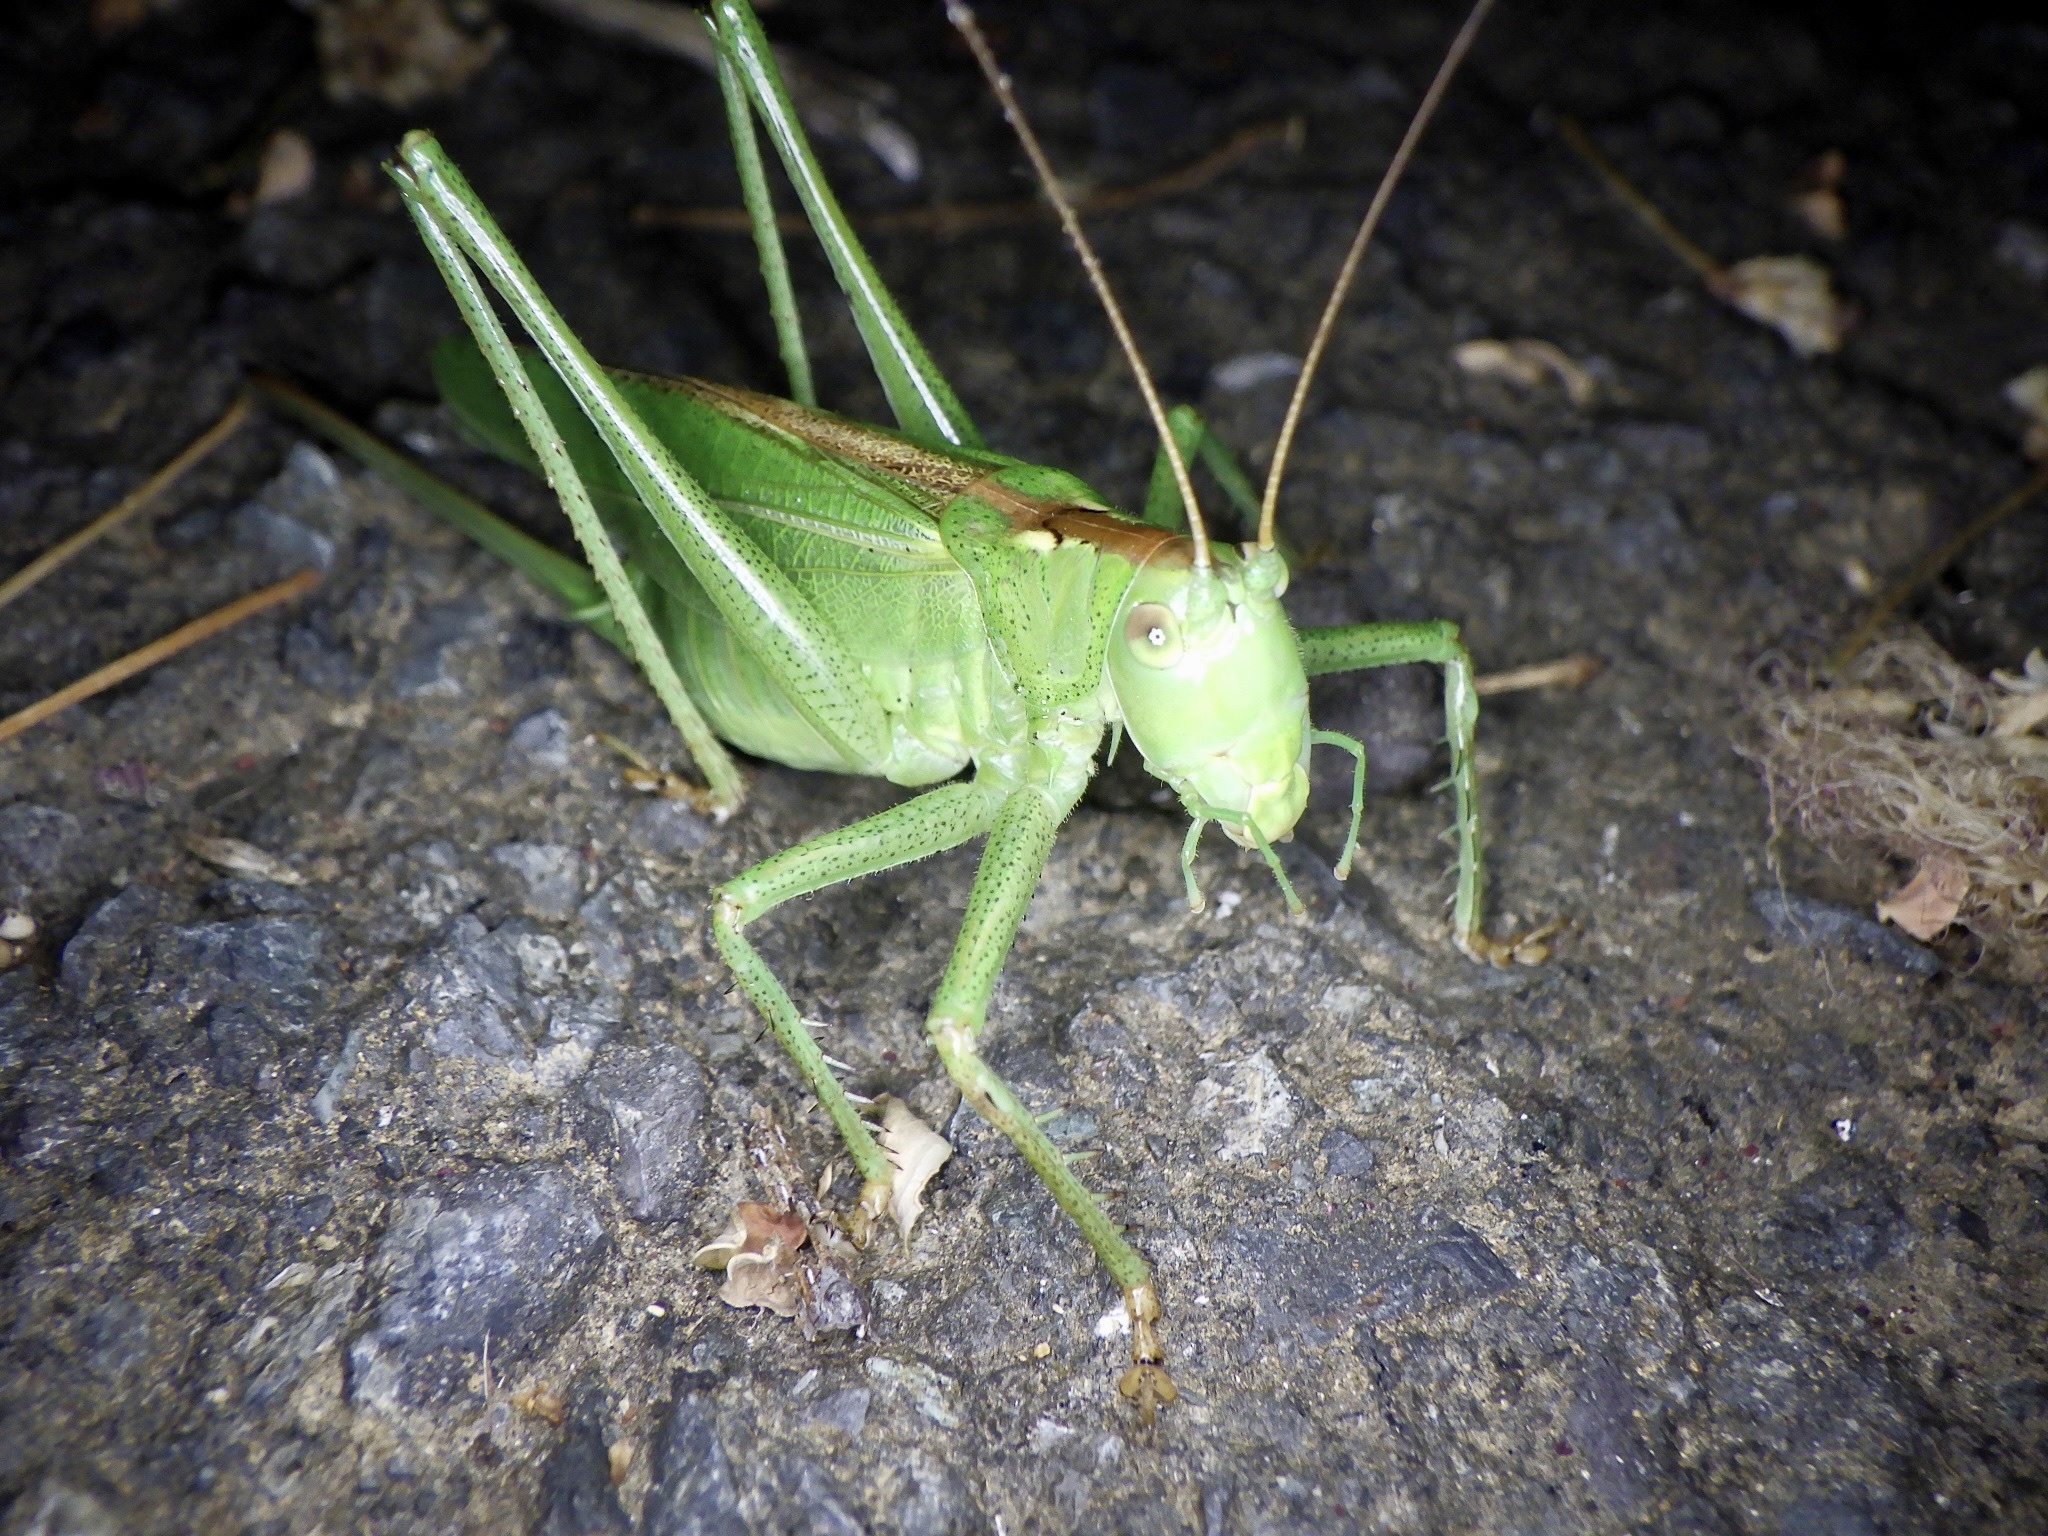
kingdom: Animalia
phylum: Arthropoda
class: Insecta
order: Orthoptera
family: Tettigoniidae
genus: Tettigonia
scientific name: Tettigonia orientalis
